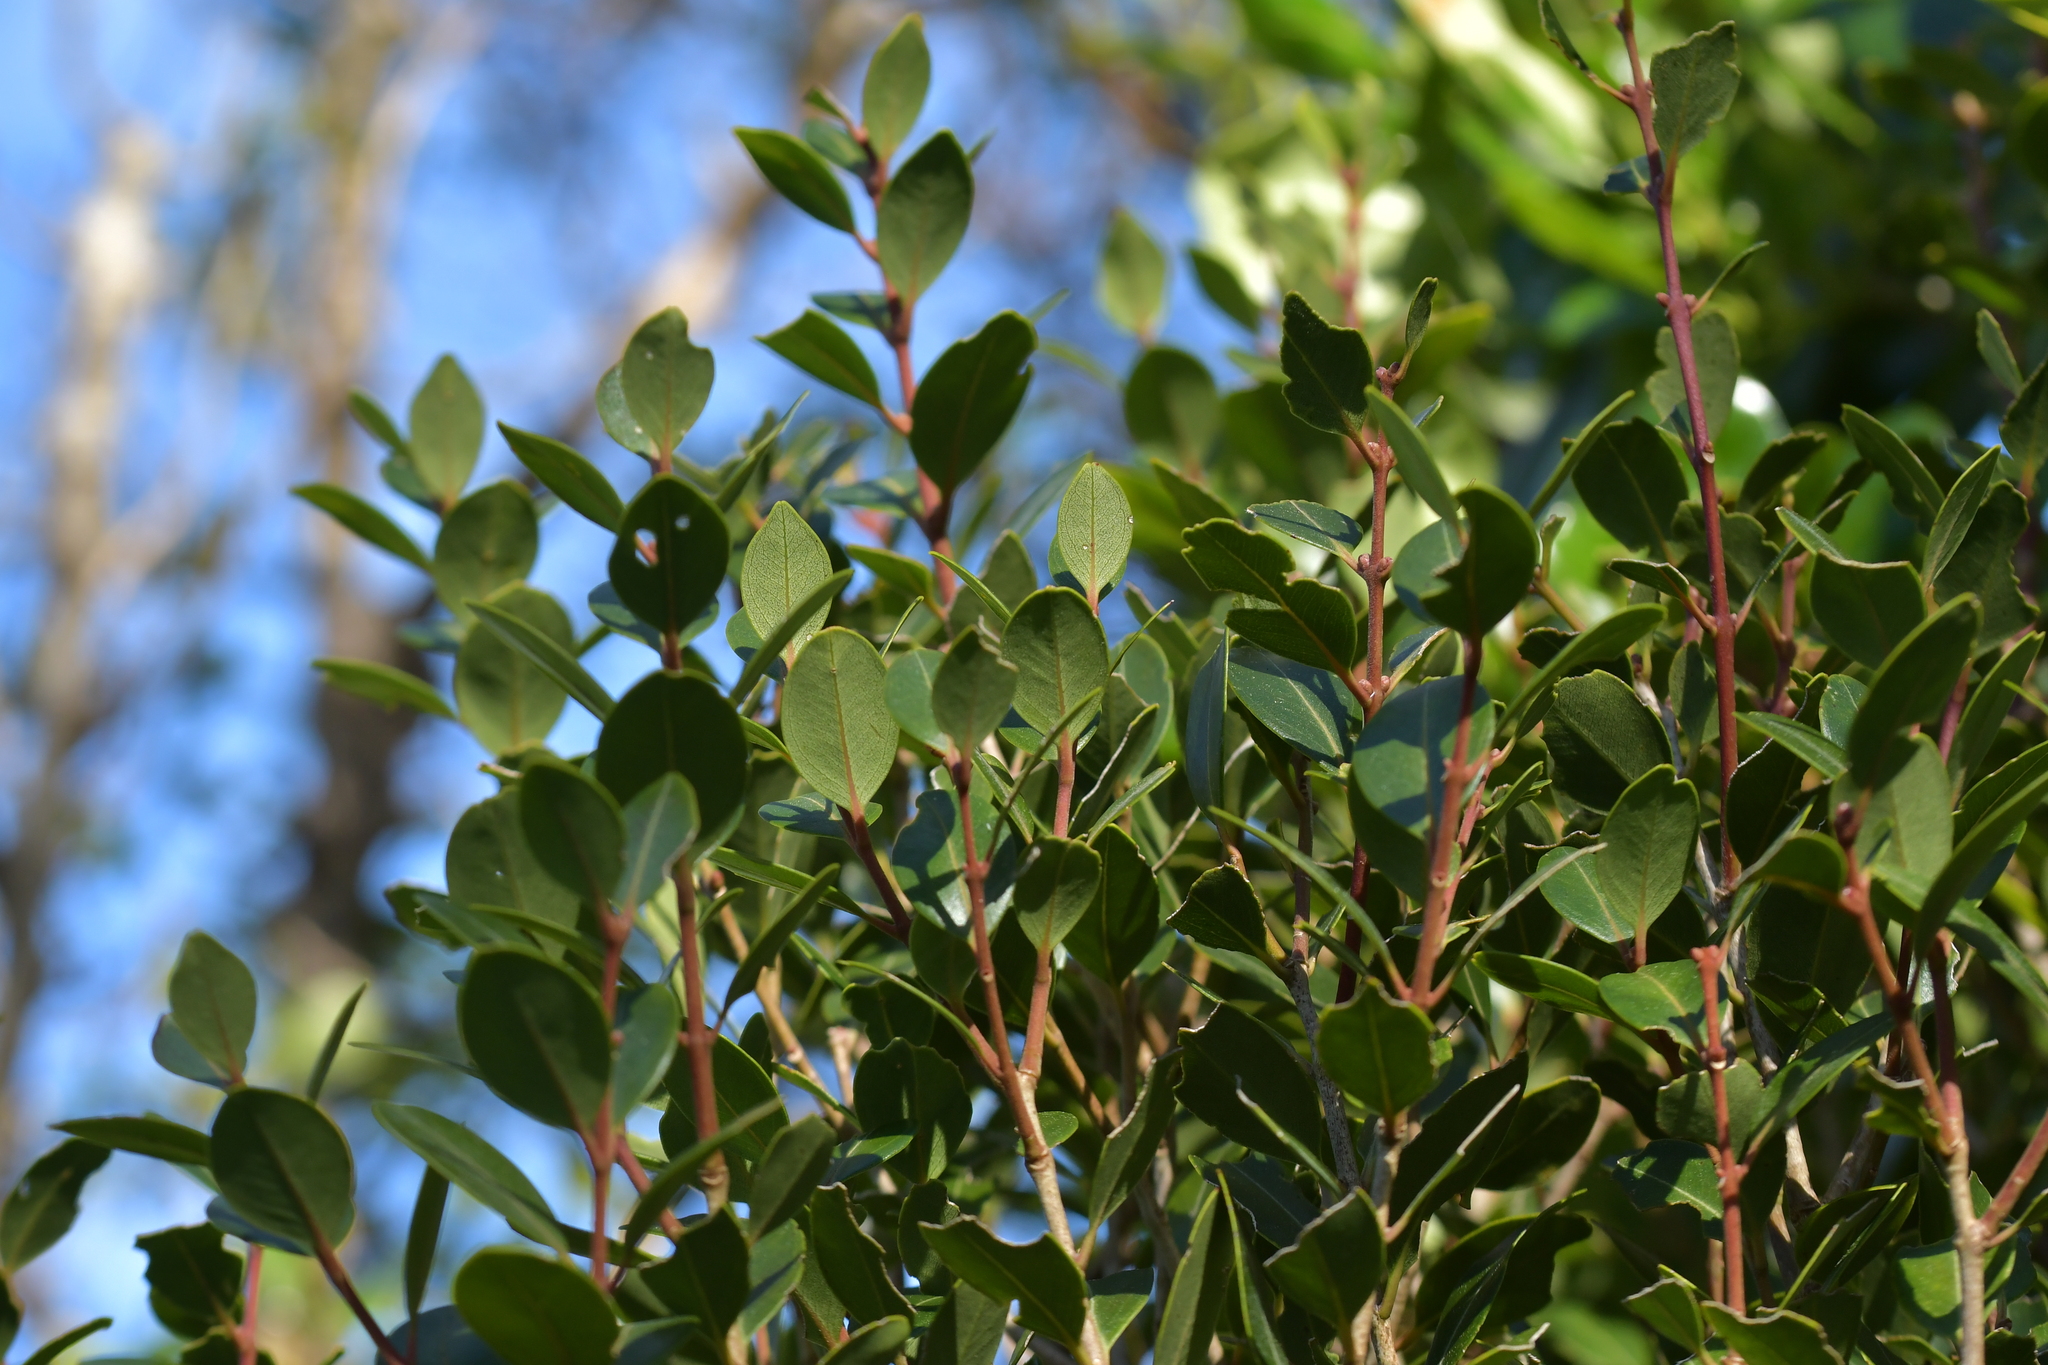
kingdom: Plantae
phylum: Tracheophyta
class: Magnoliopsida
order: Myrtales
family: Myrtaceae
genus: Metrosideros
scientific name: Metrosideros robusta
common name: Northern rata
